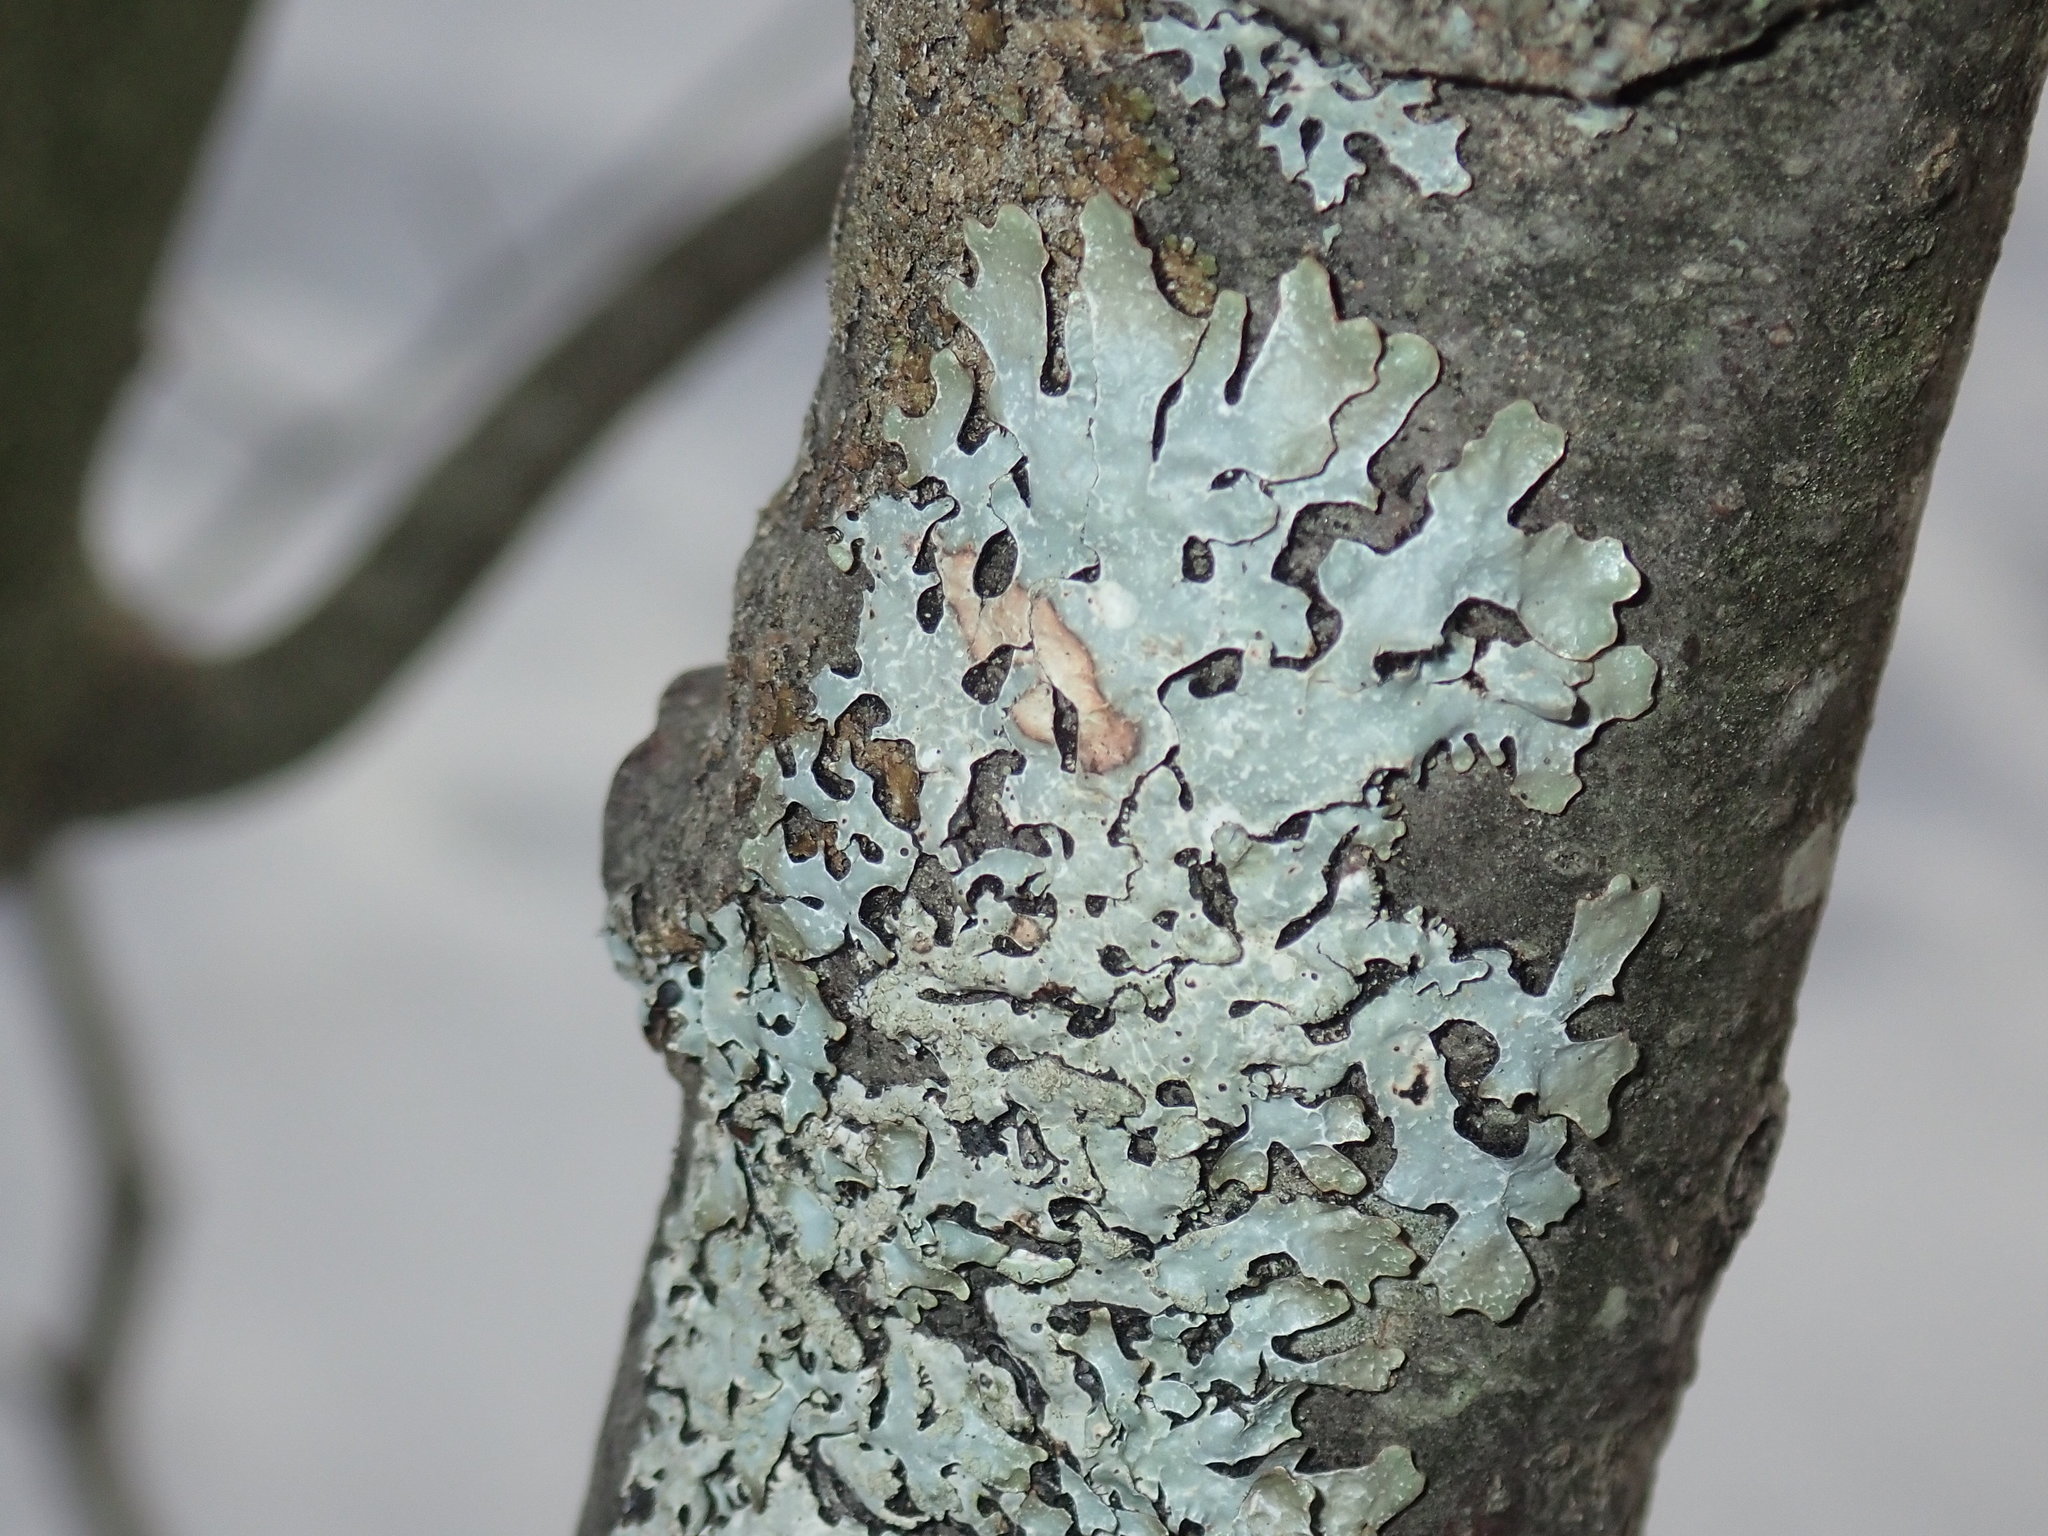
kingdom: Fungi
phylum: Ascomycota
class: Lecanoromycetes
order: Lecanorales
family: Parmeliaceae
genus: Parmelia
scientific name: Parmelia sulcata
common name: Netted shield lichen
